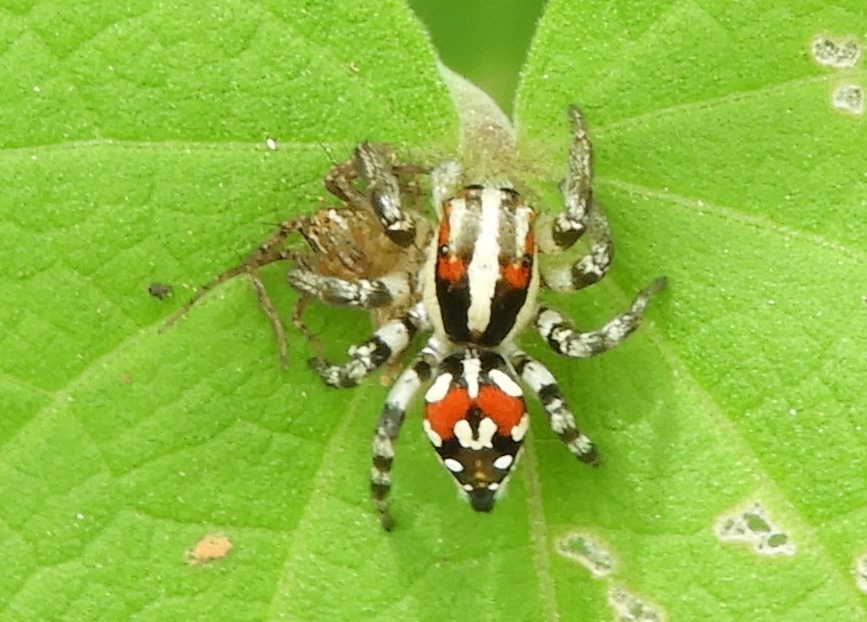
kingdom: Animalia
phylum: Arthropoda
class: Arachnida
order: Araneae
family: Salticidae
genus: Nycerella
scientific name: Nycerella
